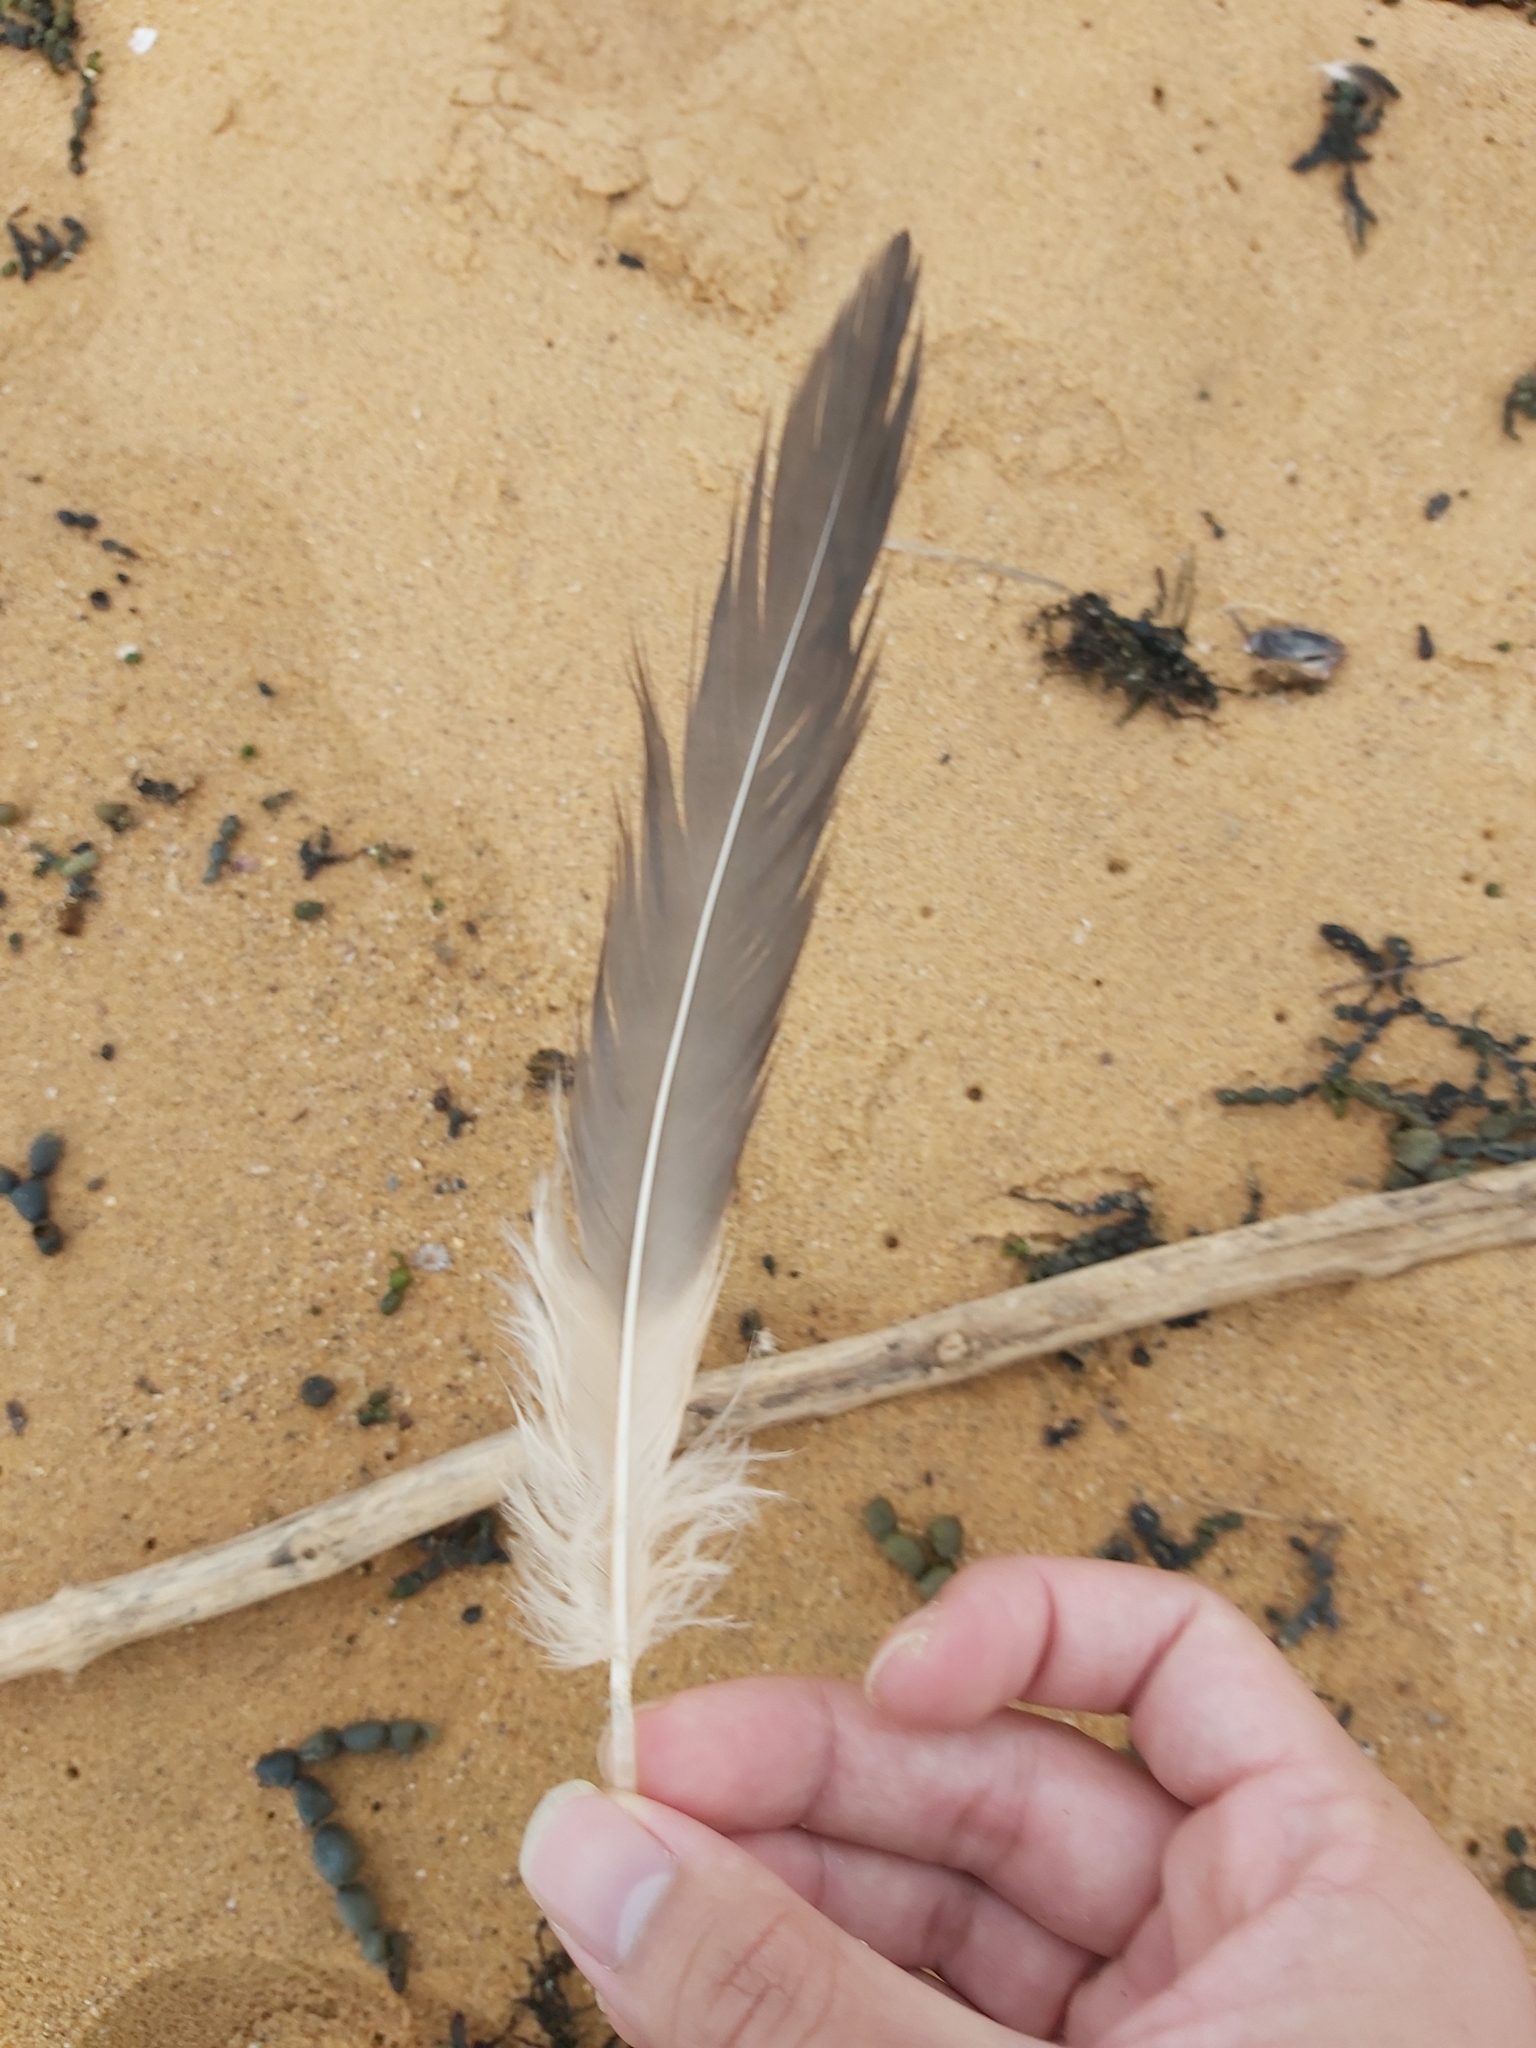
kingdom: Animalia
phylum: Chordata
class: Aves
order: Pelecaniformes
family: Pelecanidae
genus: Pelecanus
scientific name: Pelecanus conspicillatus
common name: Australian pelican
